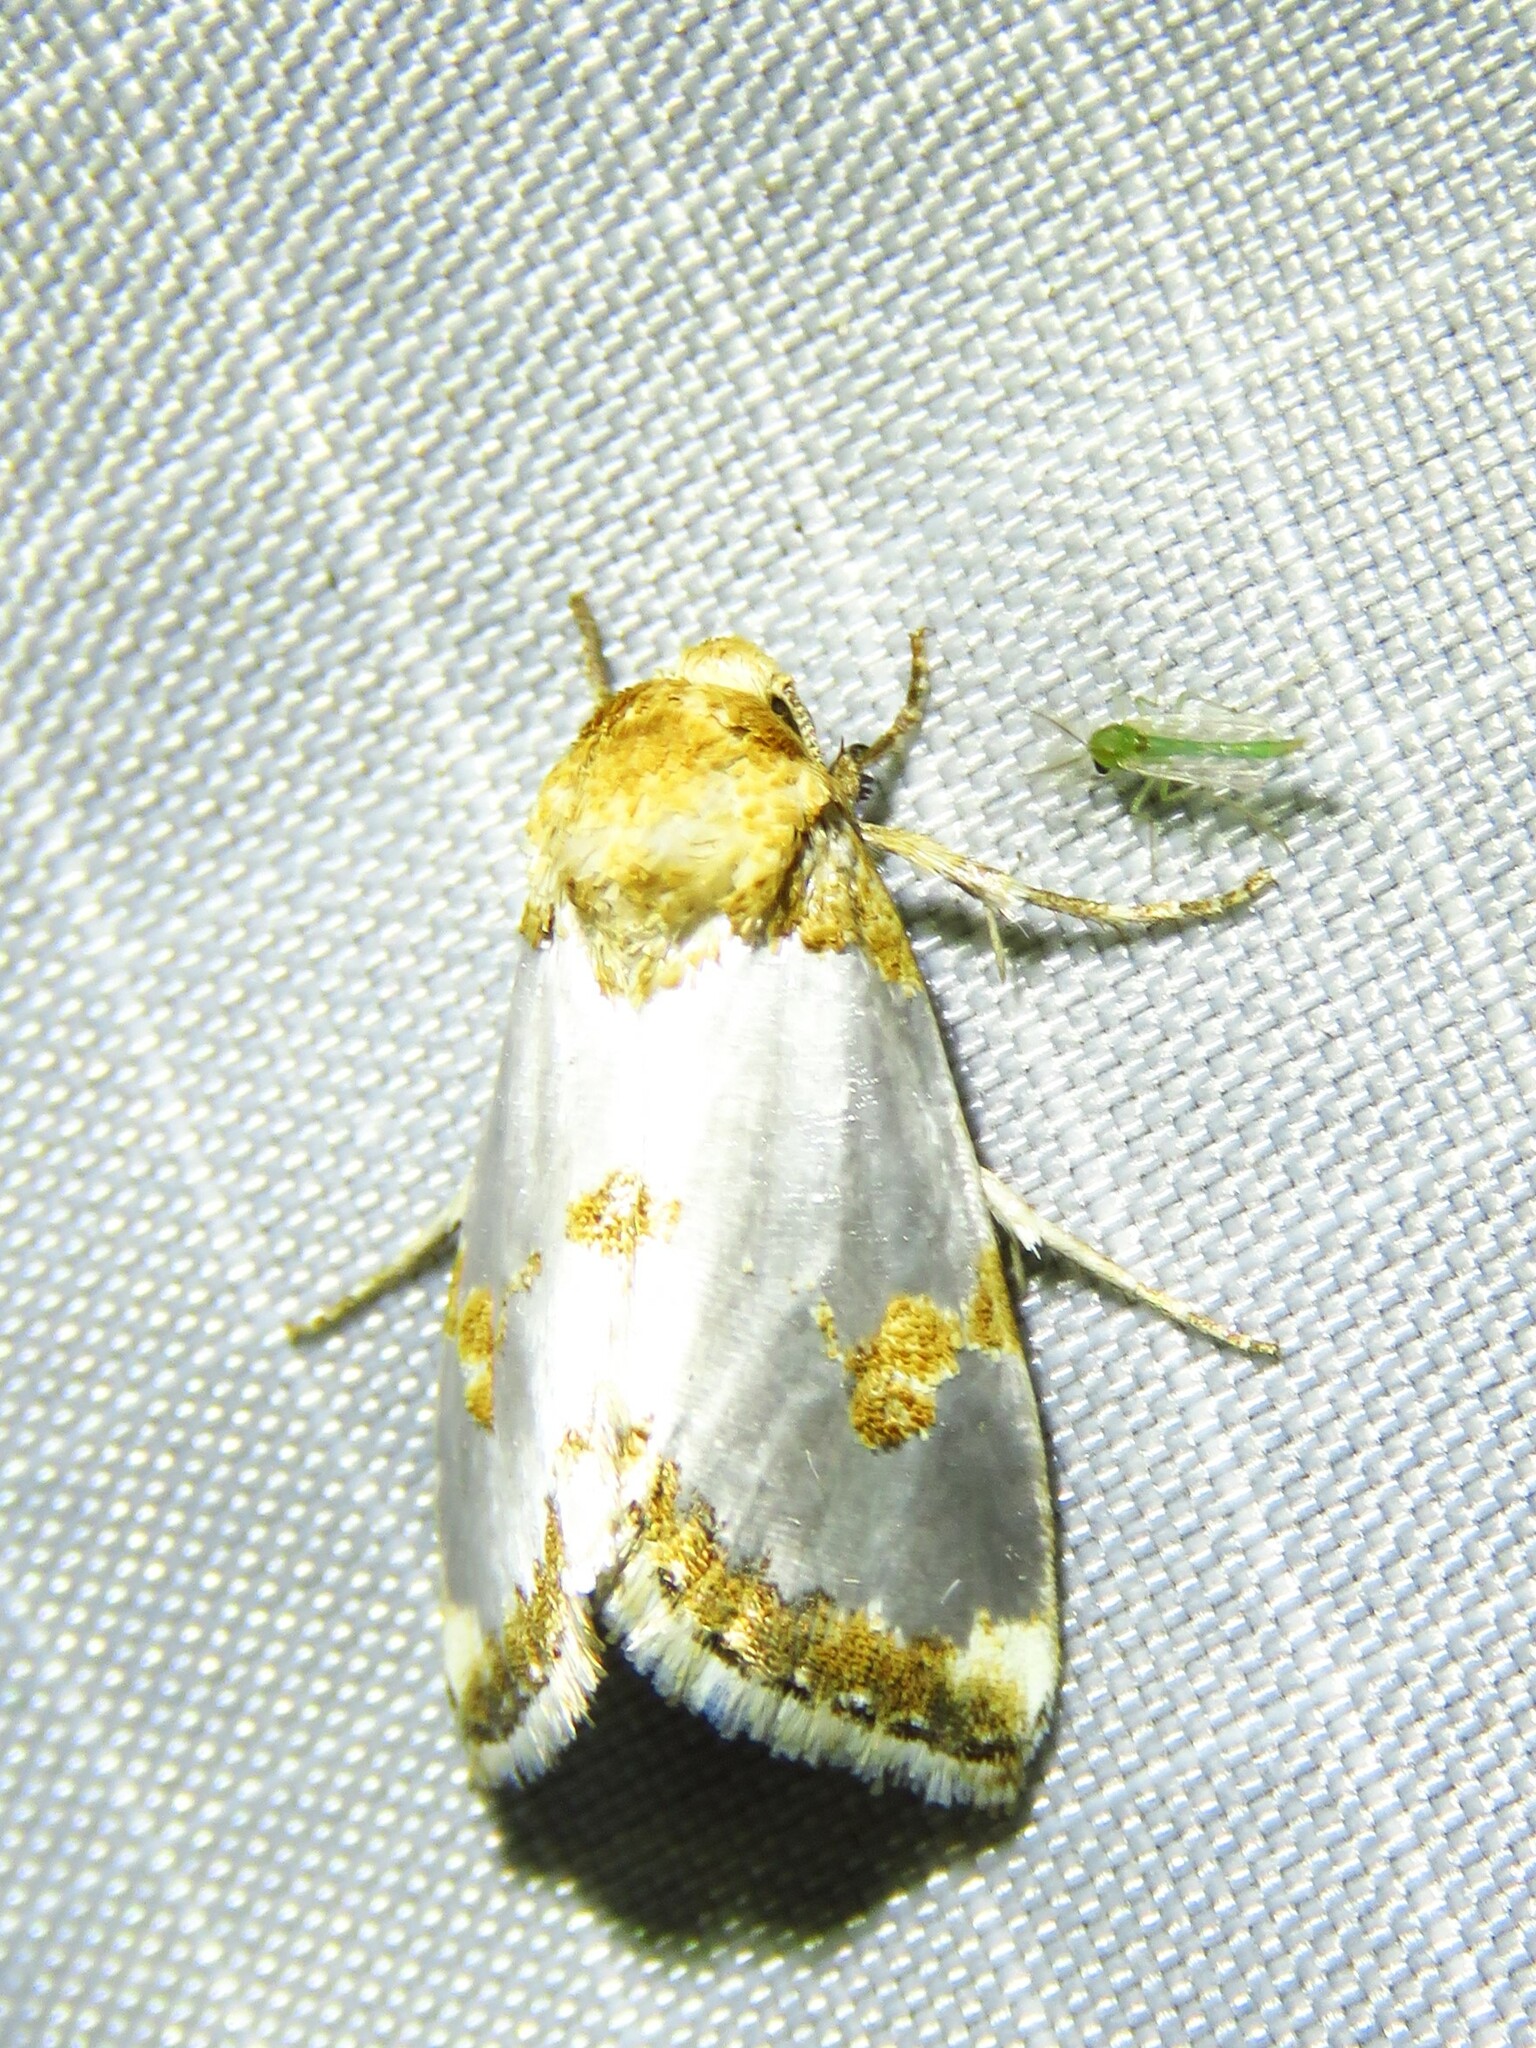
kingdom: Animalia
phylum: Arthropoda
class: Insecta
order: Lepidoptera
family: Noctuidae
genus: Schinia
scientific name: Schinia chrysellus
